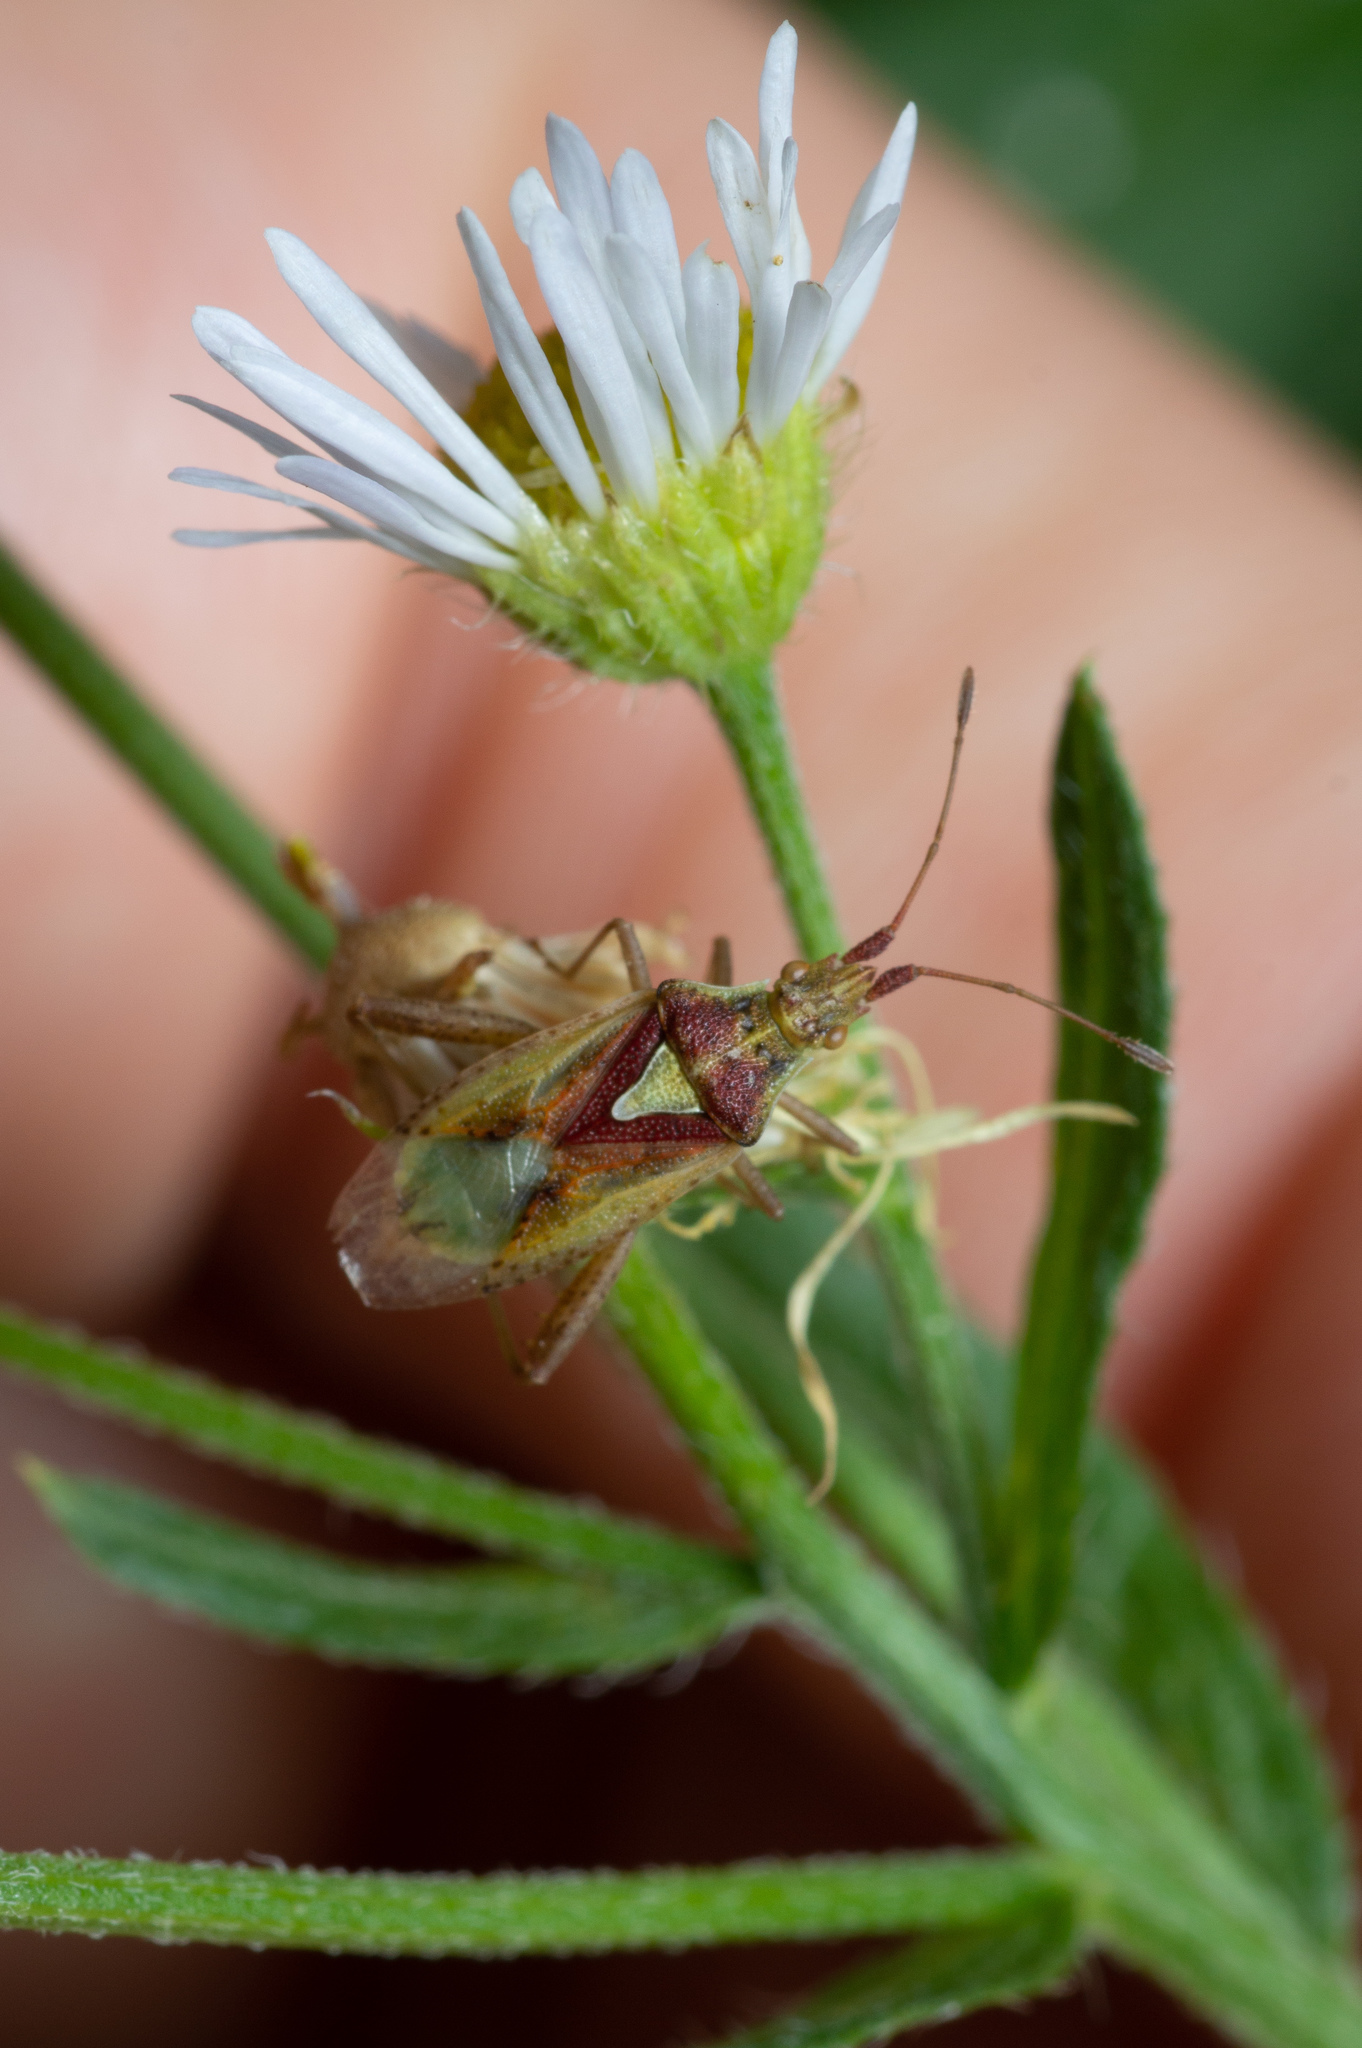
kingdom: Animalia
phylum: Arthropoda
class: Insecta
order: Hemiptera
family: Rhopalidae
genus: Harmostes
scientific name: Harmostes reflexulus
